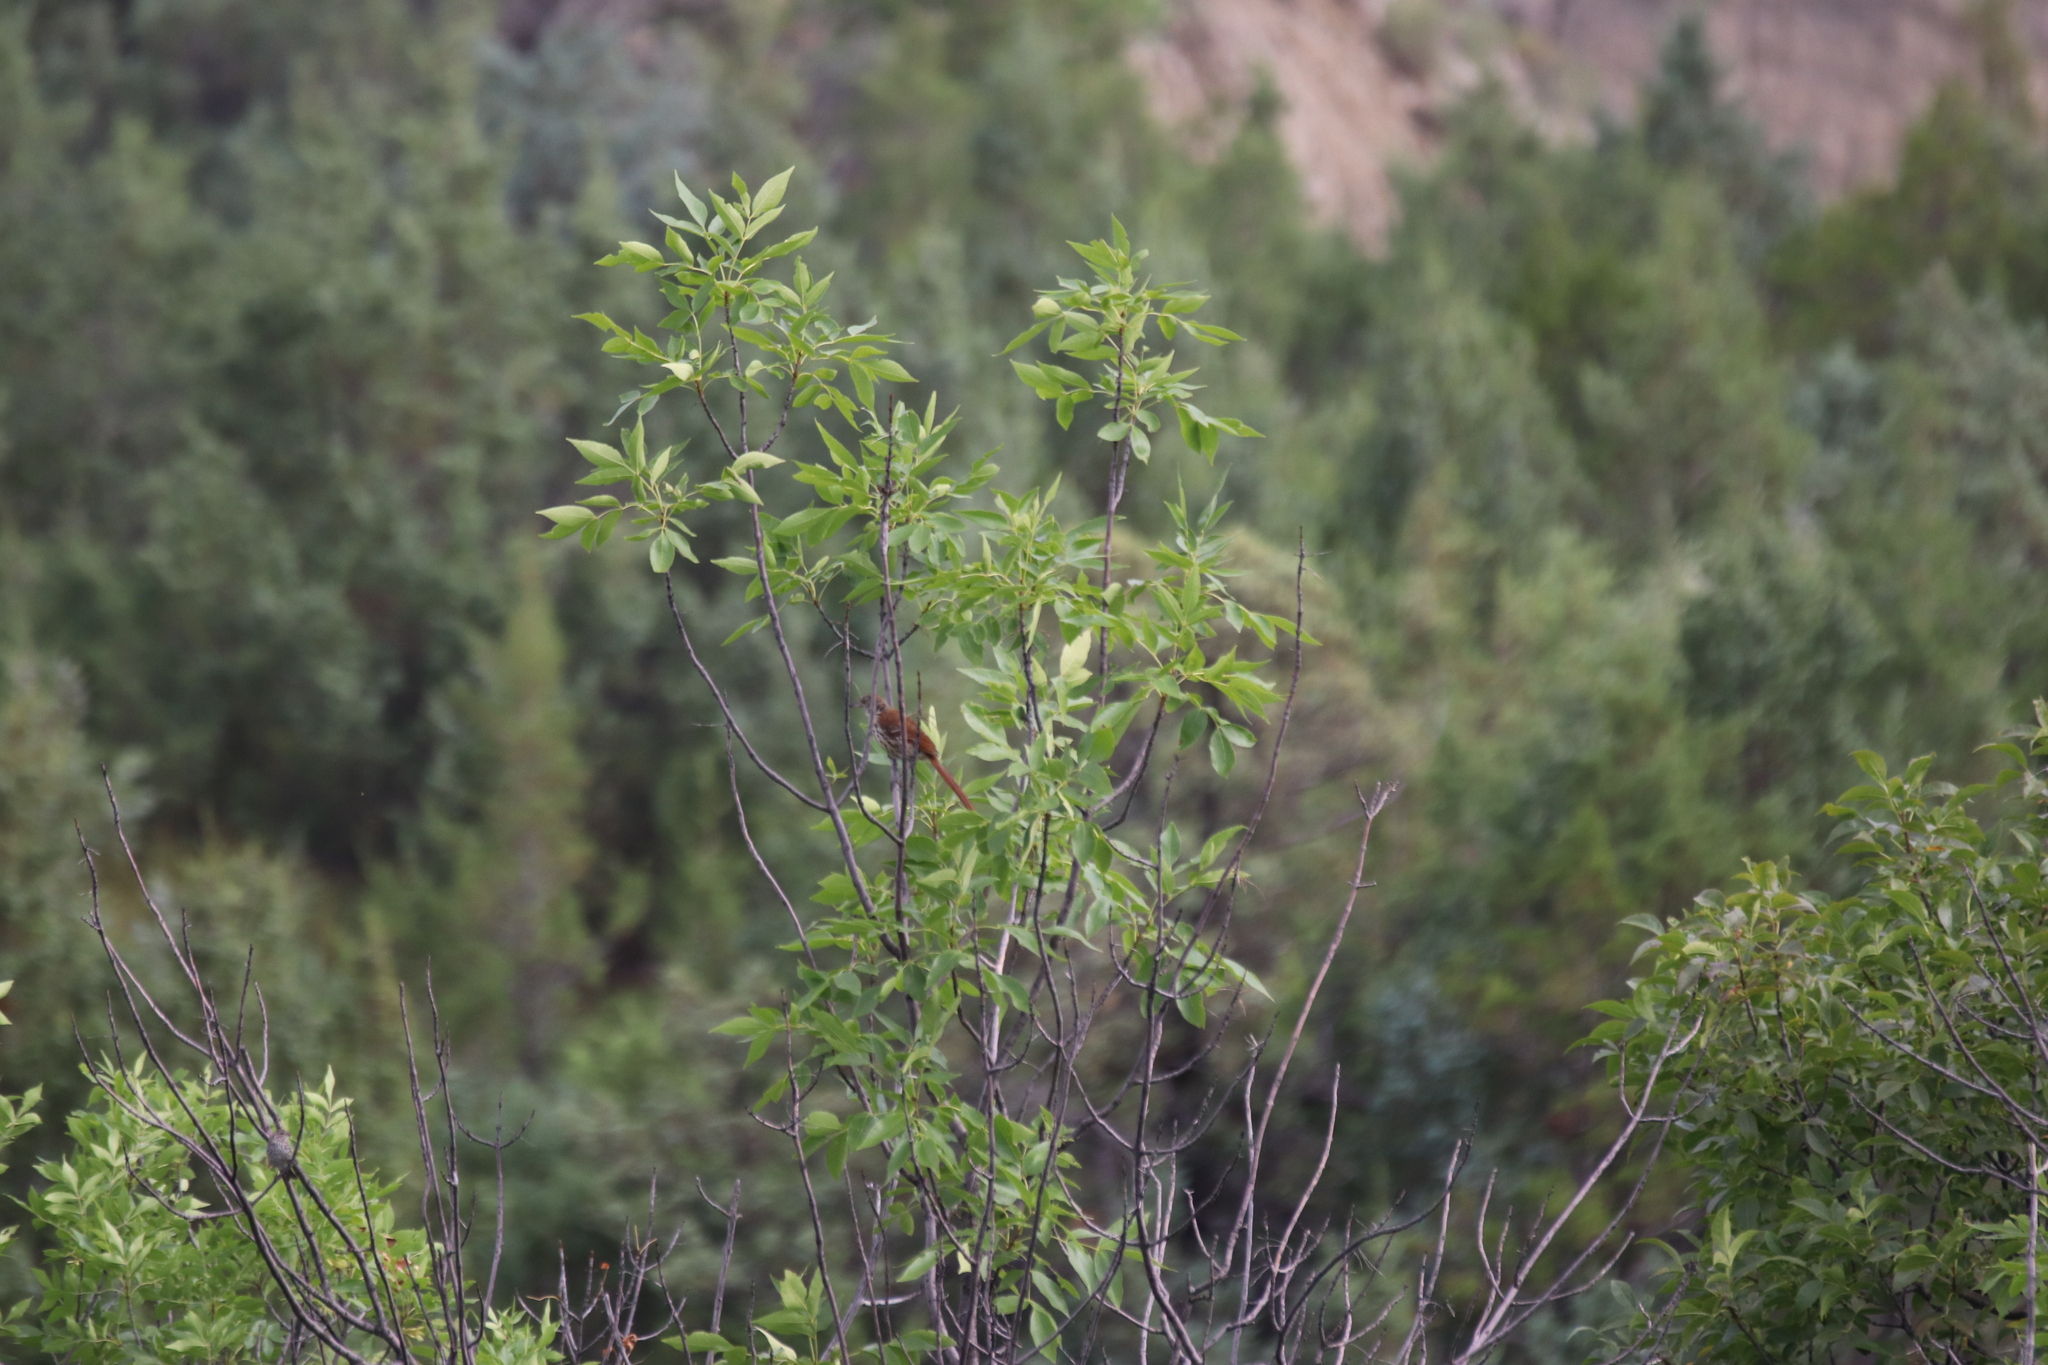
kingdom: Animalia
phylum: Chordata
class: Aves
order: Passeriformes
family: Mimidae
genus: Toxostoma
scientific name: Toxostoma rufum
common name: Brown thrasher
